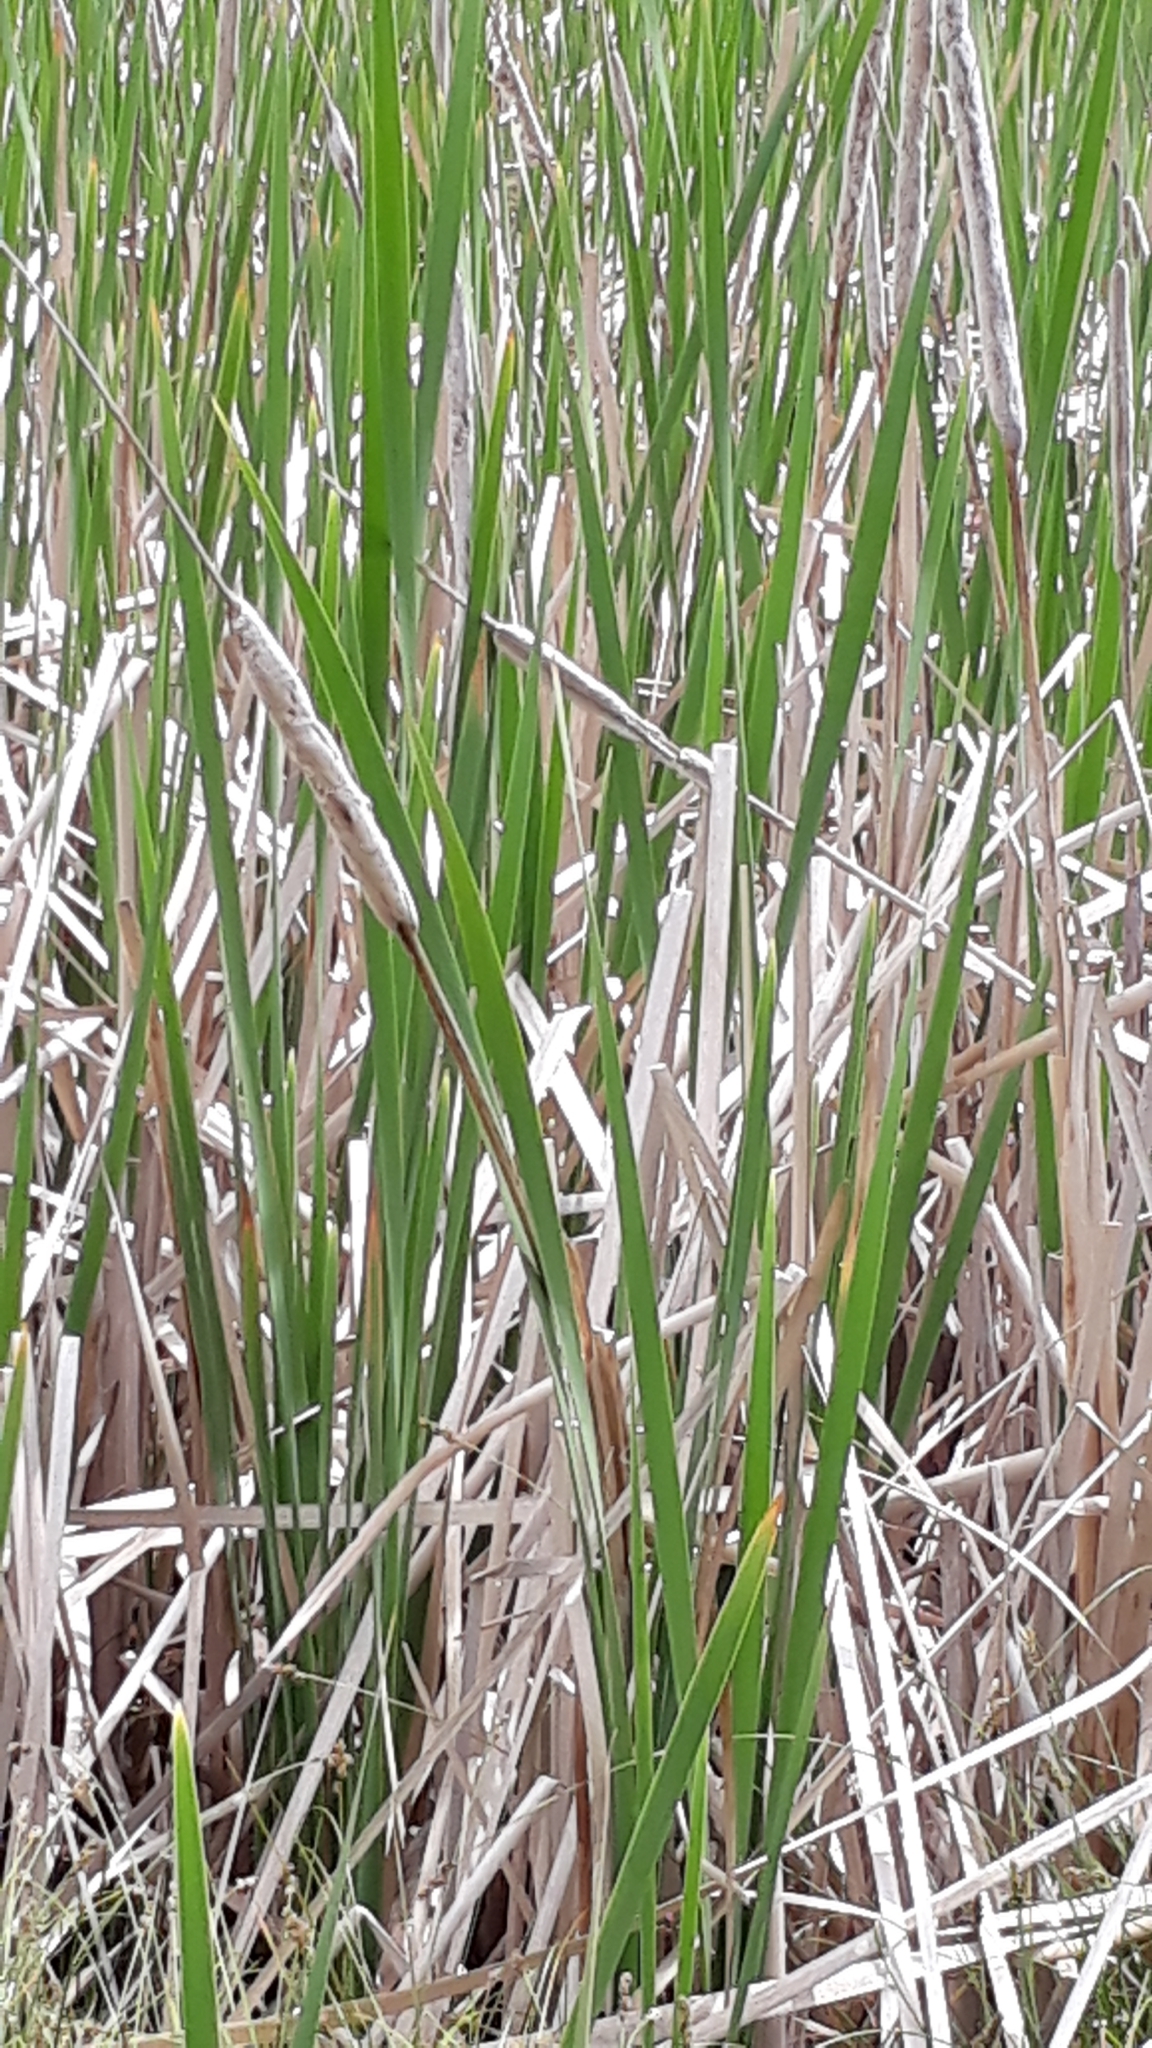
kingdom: Plantae
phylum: Tracheophyta
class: Liliopsida
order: Poales
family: Typhaceae
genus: Typha
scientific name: Typha orientalis
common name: Bullrush
